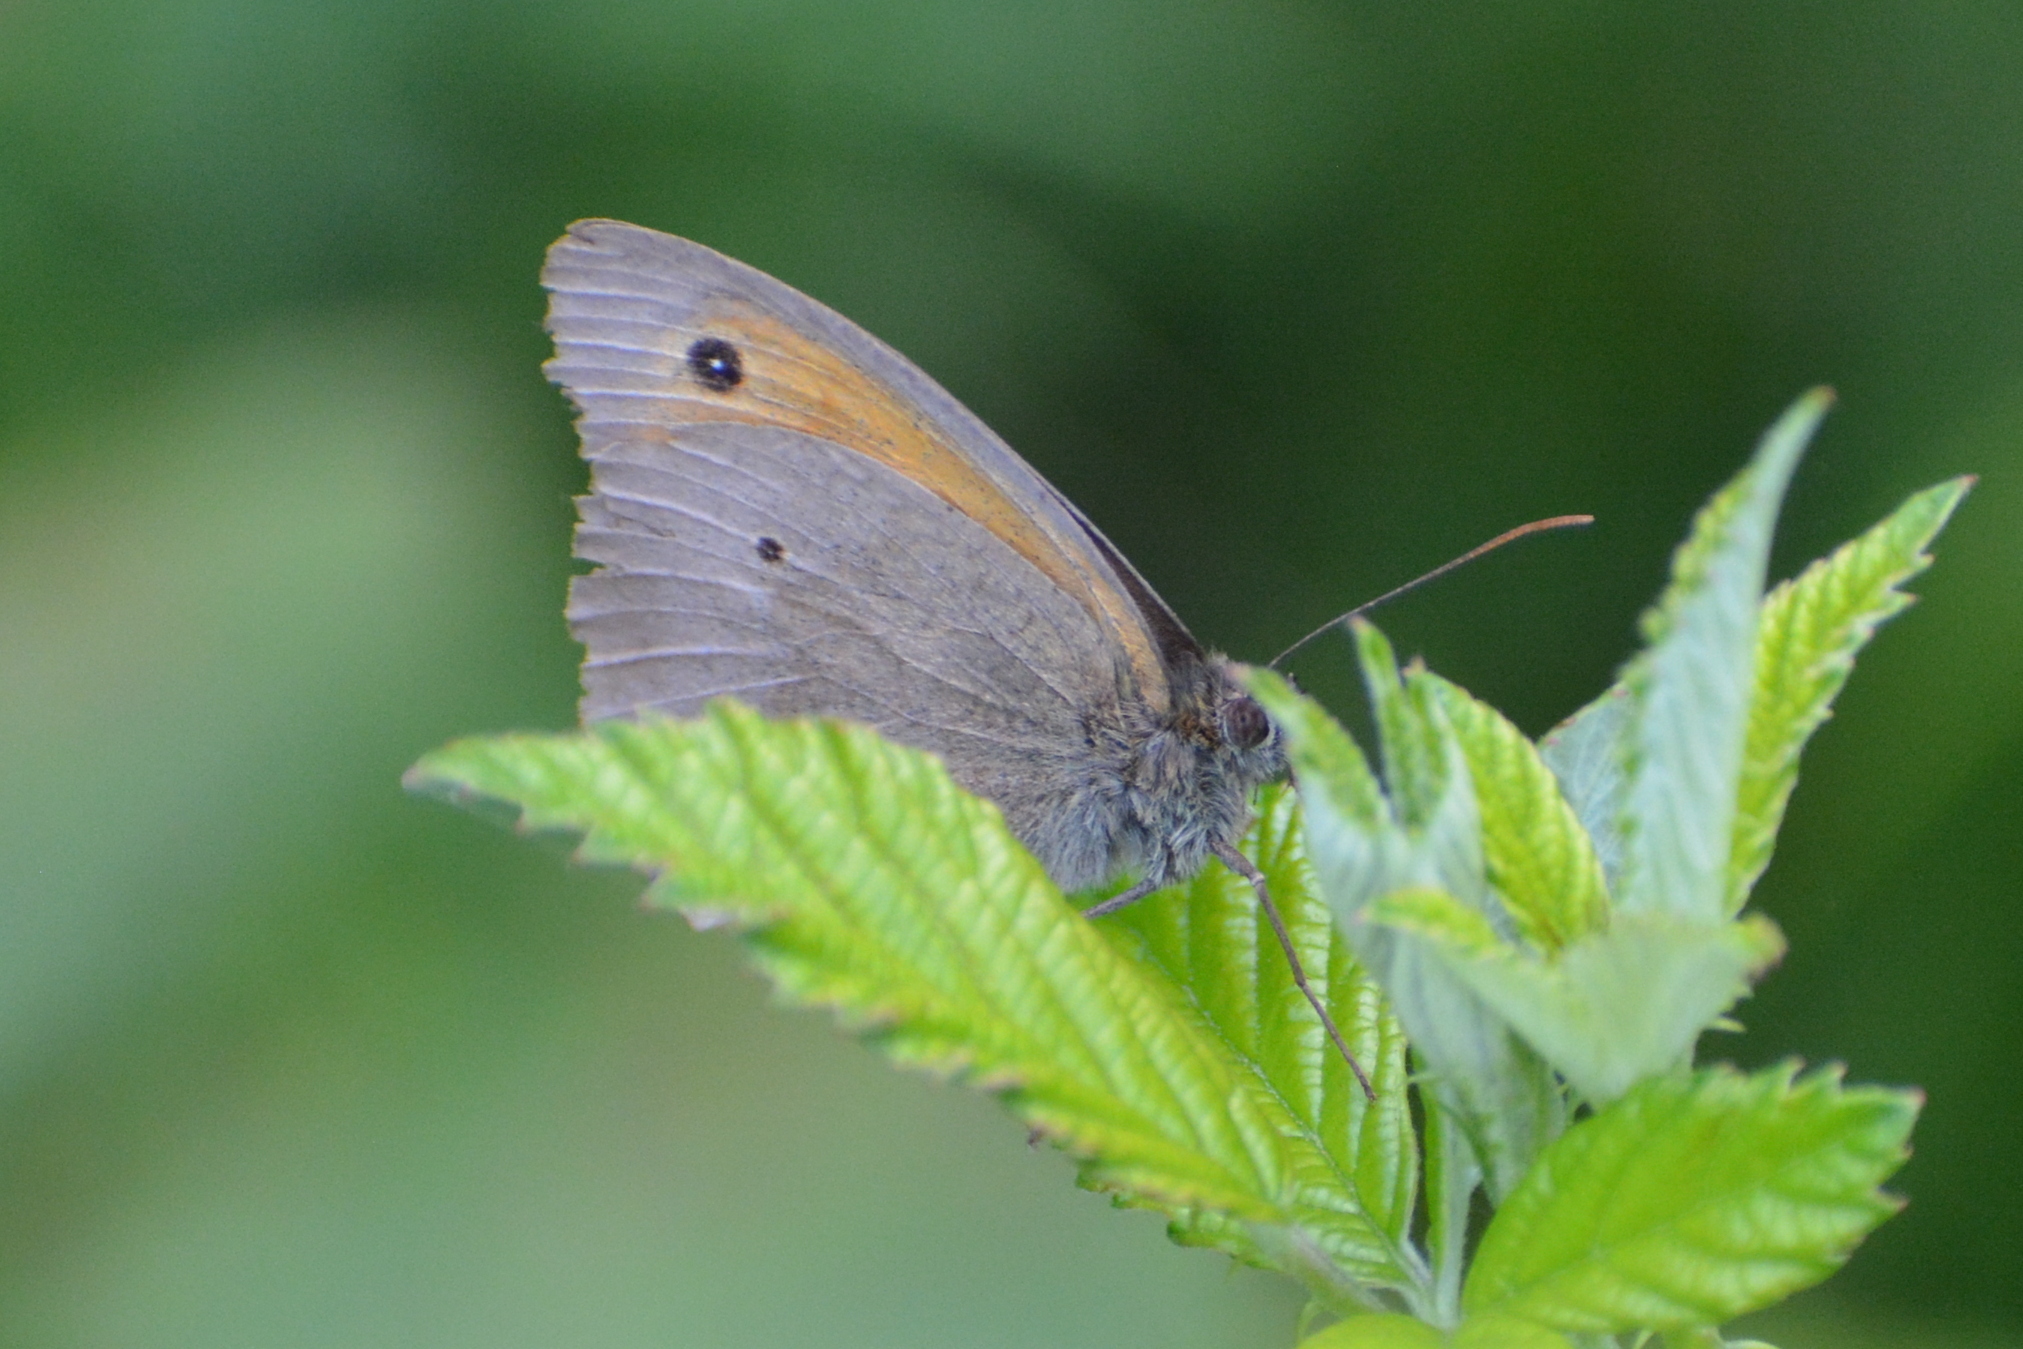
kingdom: Animalia
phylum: Arthropoda
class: Insecta
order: Lepidoptera
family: Nymphalidae
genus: Maniola
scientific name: Maniola jurtina
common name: Meadow brown
